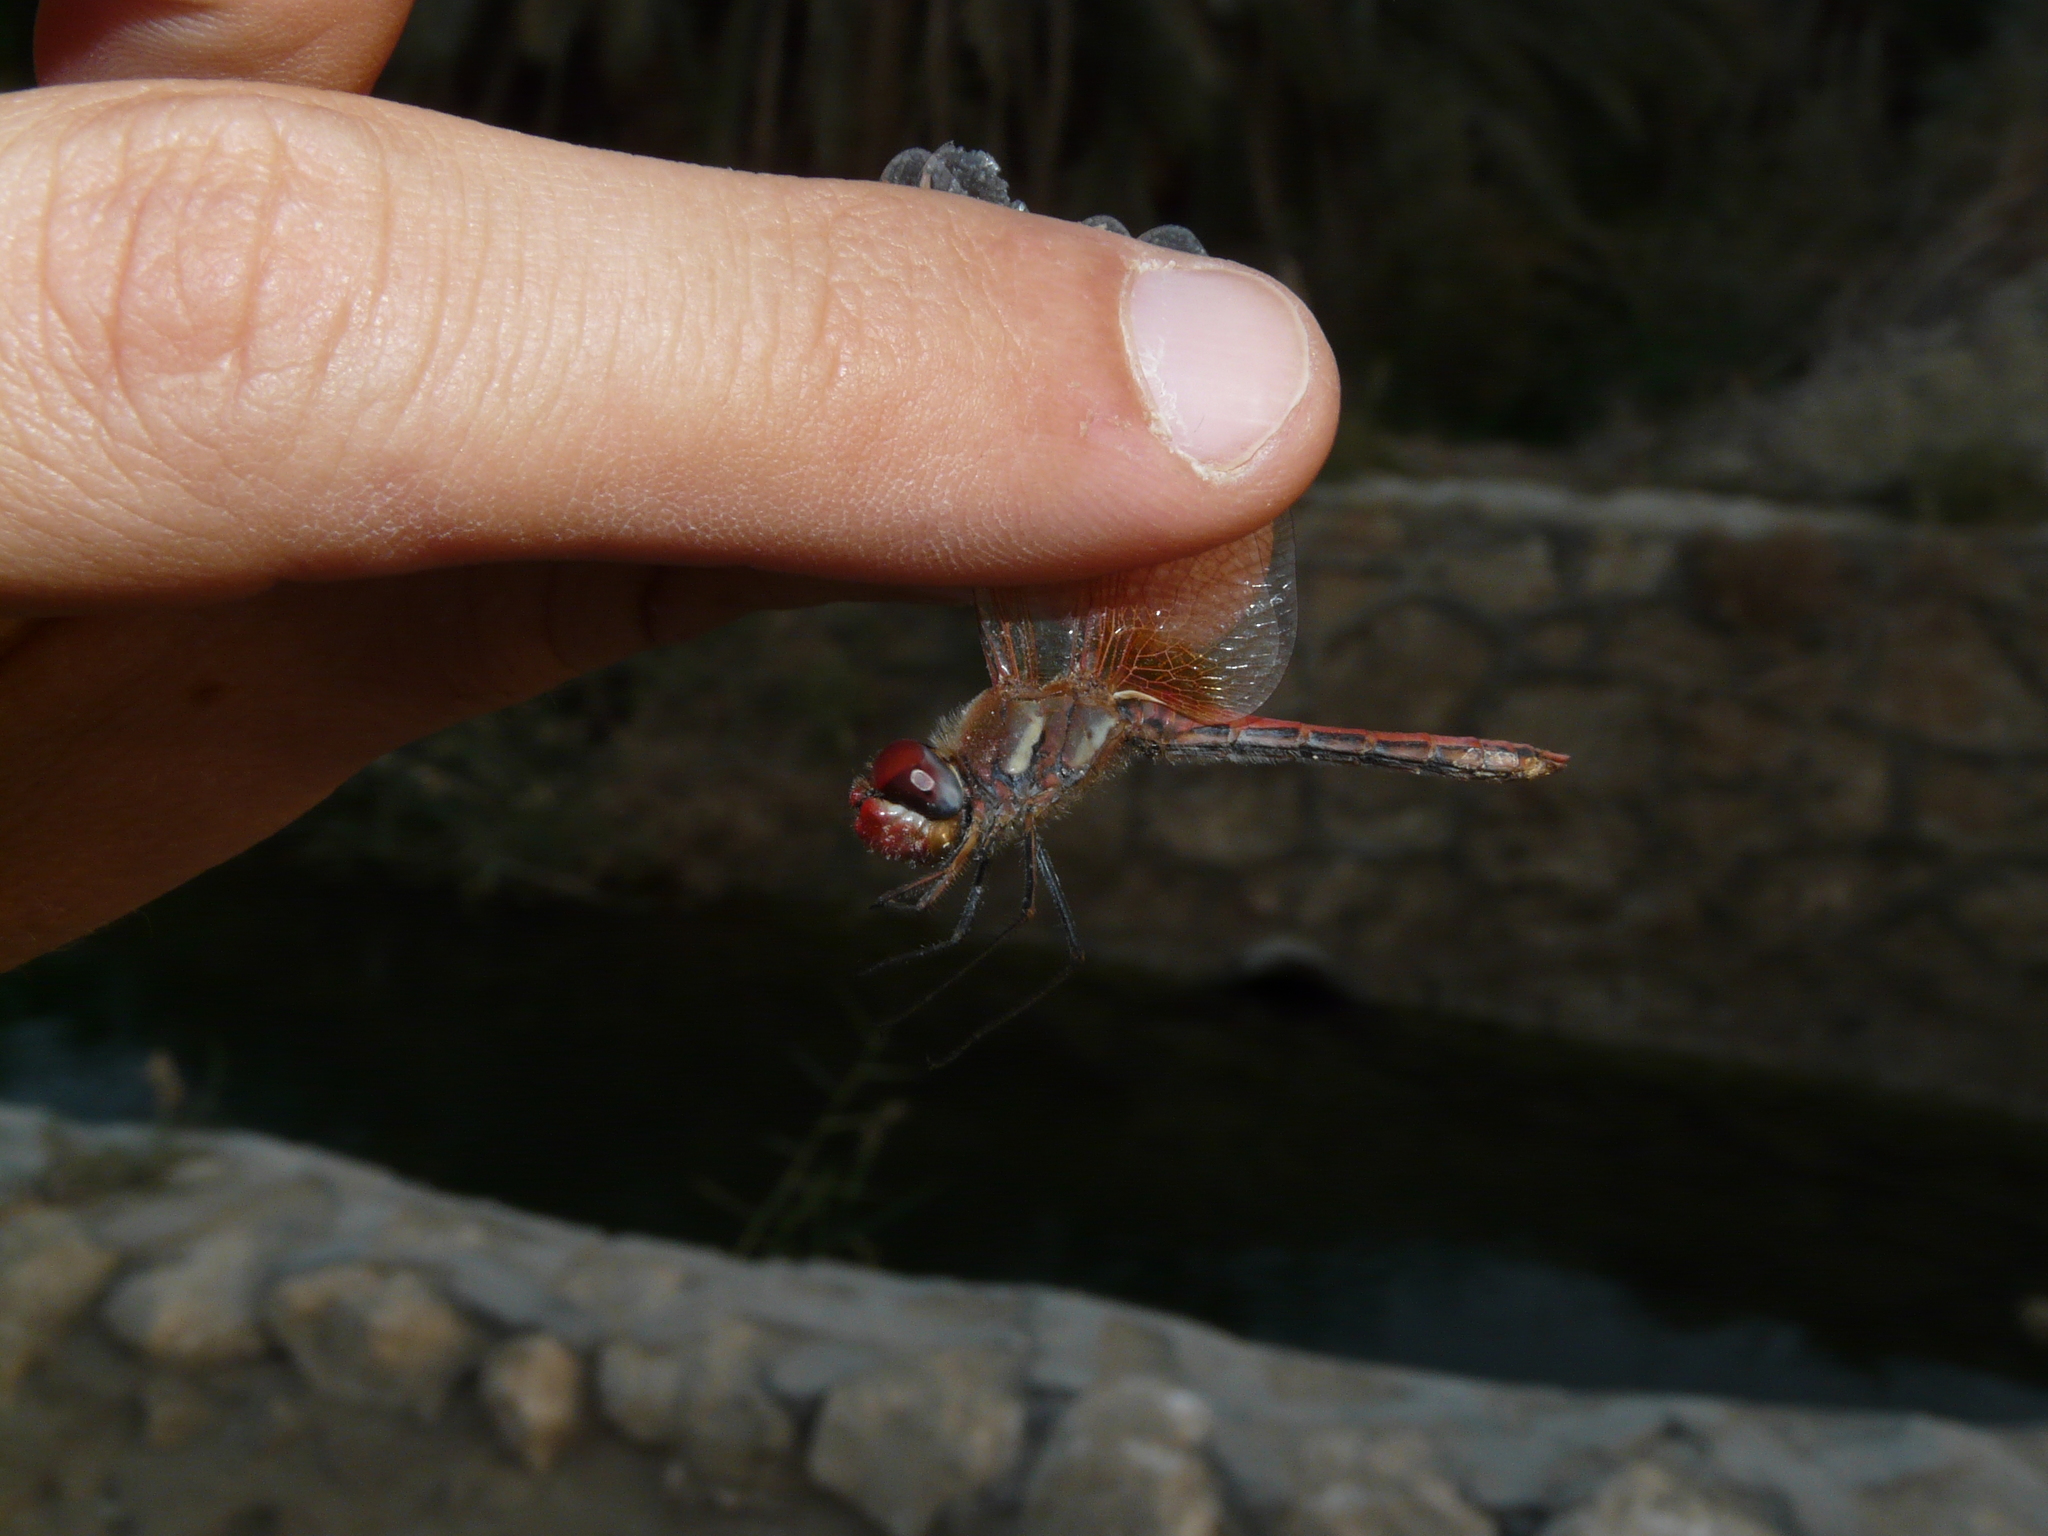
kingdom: Animalia
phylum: Arthropoda
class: Insecta
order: Odonata
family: Libellulidae
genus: Sympetrum
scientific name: Sympetrum fonscolombii
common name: Red-veined darter
